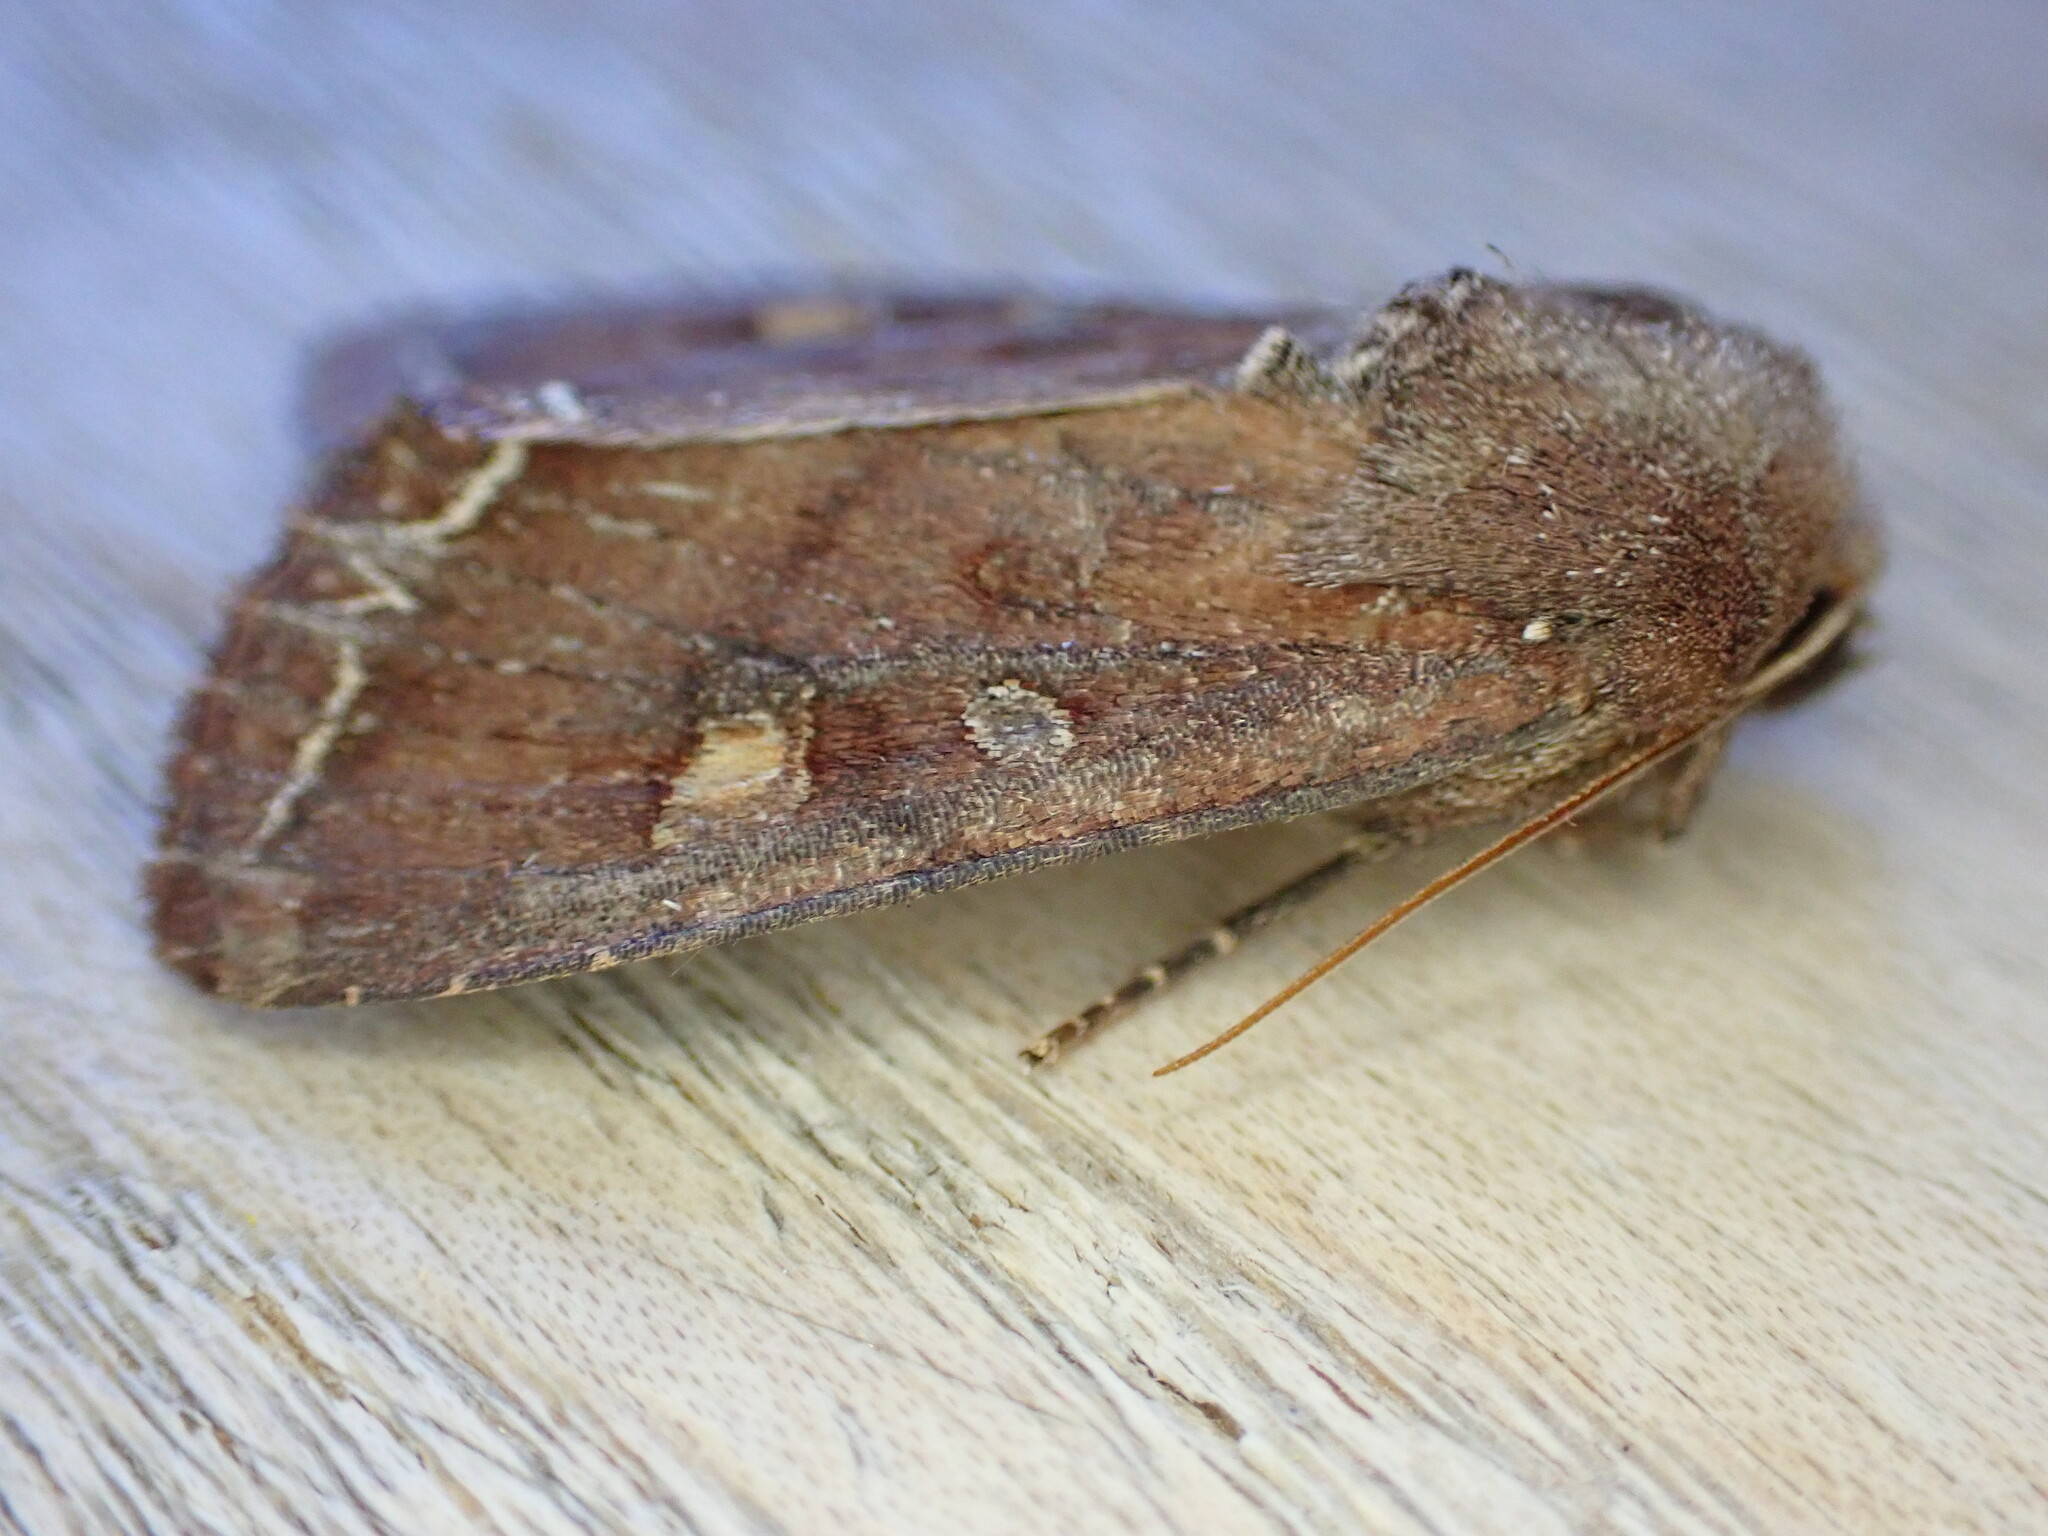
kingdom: Animalia
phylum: Arthropoda
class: Insecta
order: Lepidoptera
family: Noctuidae
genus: Lacanobia
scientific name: Lacanobia oleracea
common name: Bright-line brown-eye
